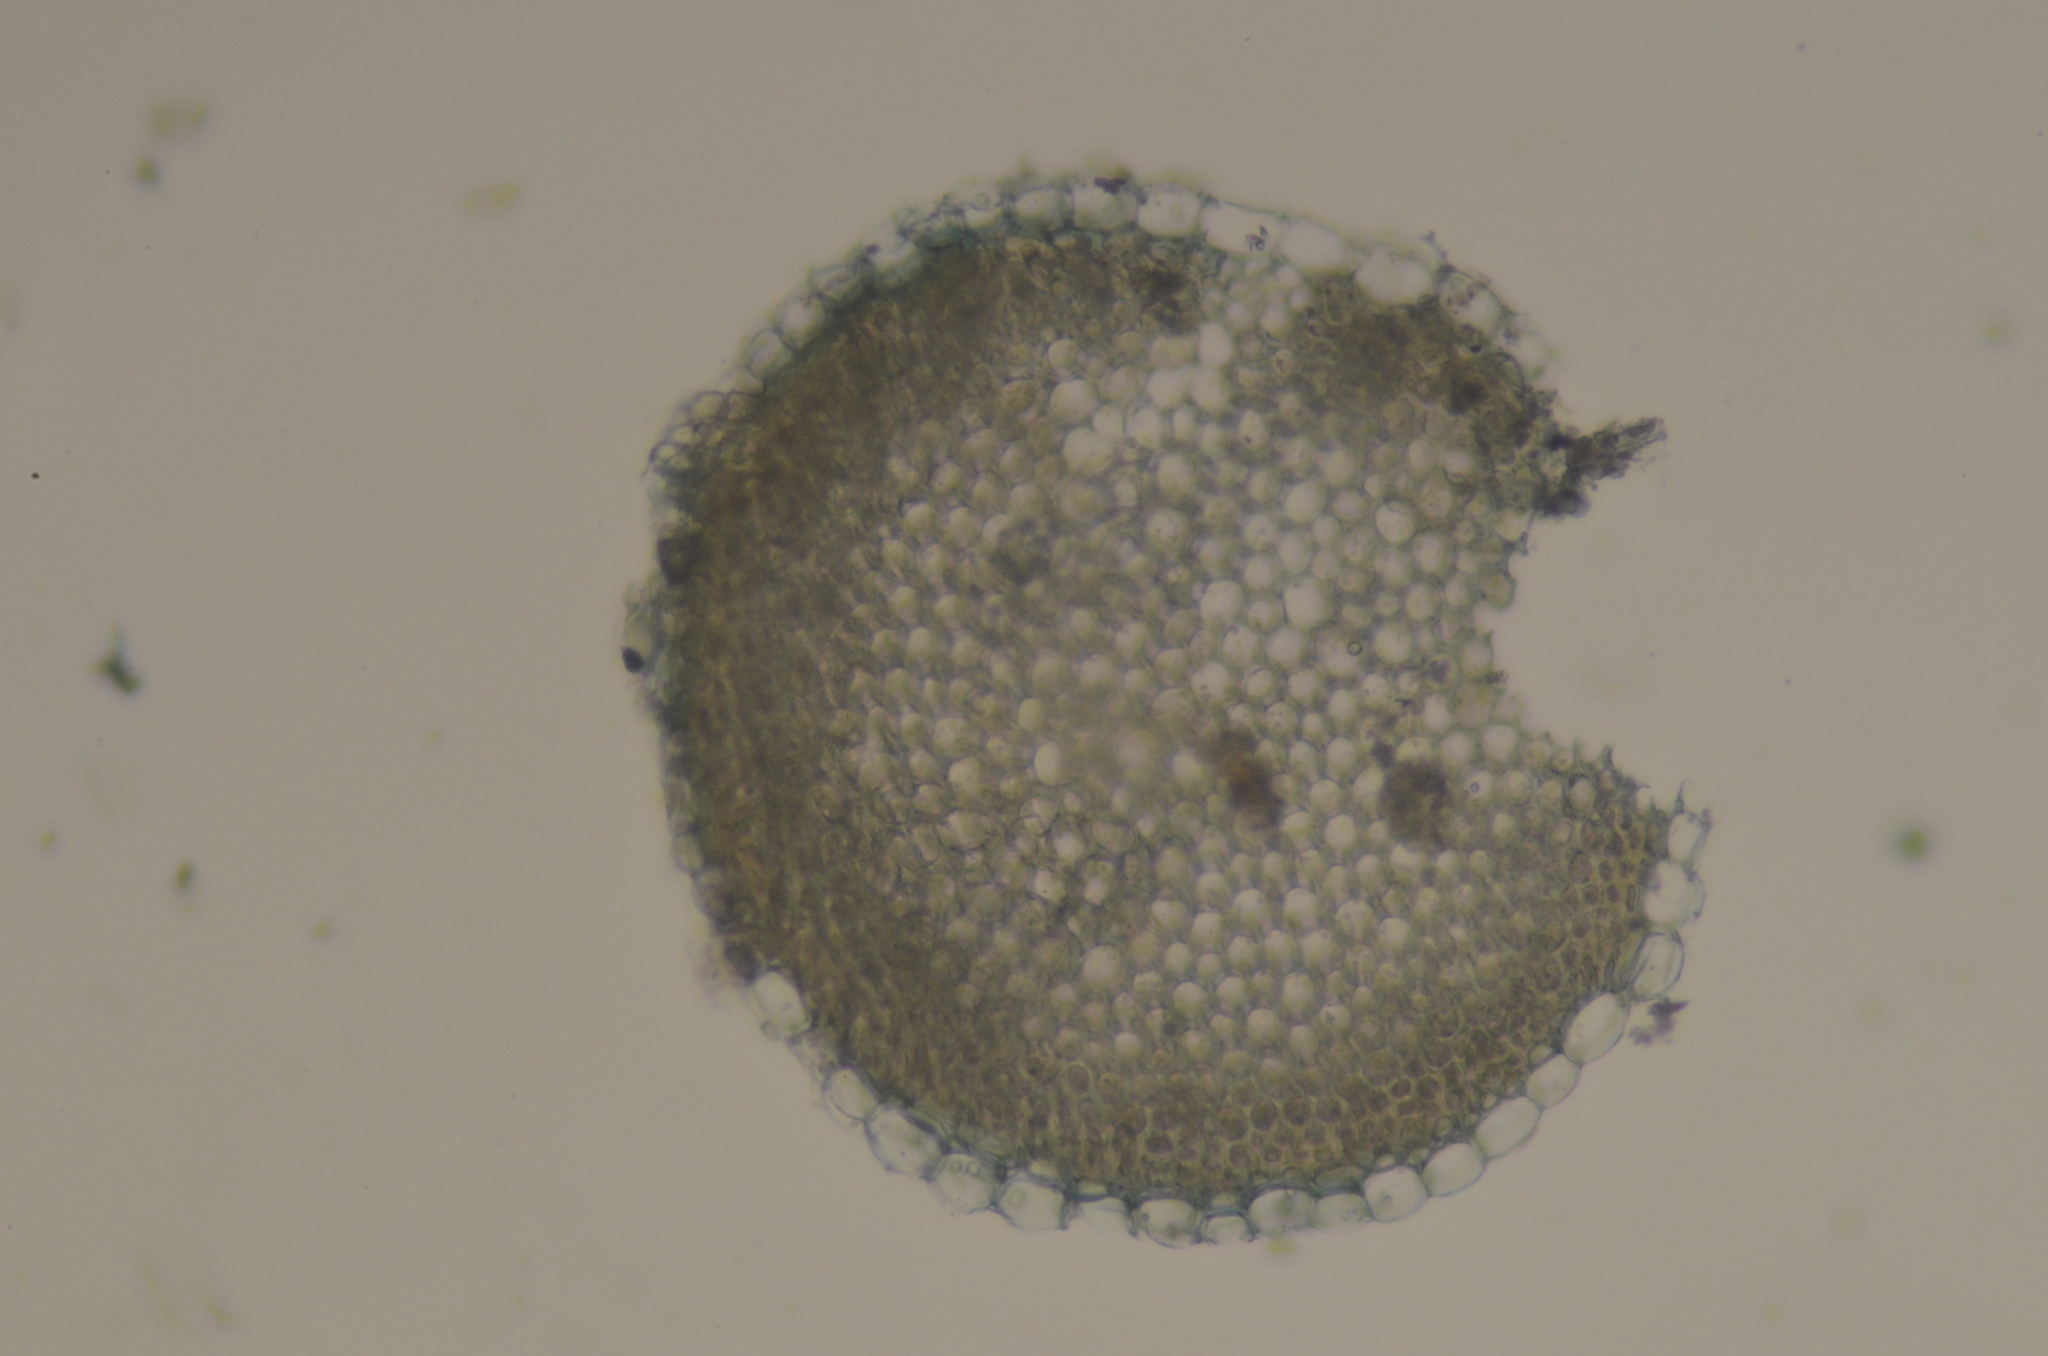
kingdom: Plantae
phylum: Bryophyta
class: Sphagnopsida
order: Sphagnales
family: Sphagnaceae
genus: Sphagnum
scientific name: Sphagnum subsecundum
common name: Orange peat moss
